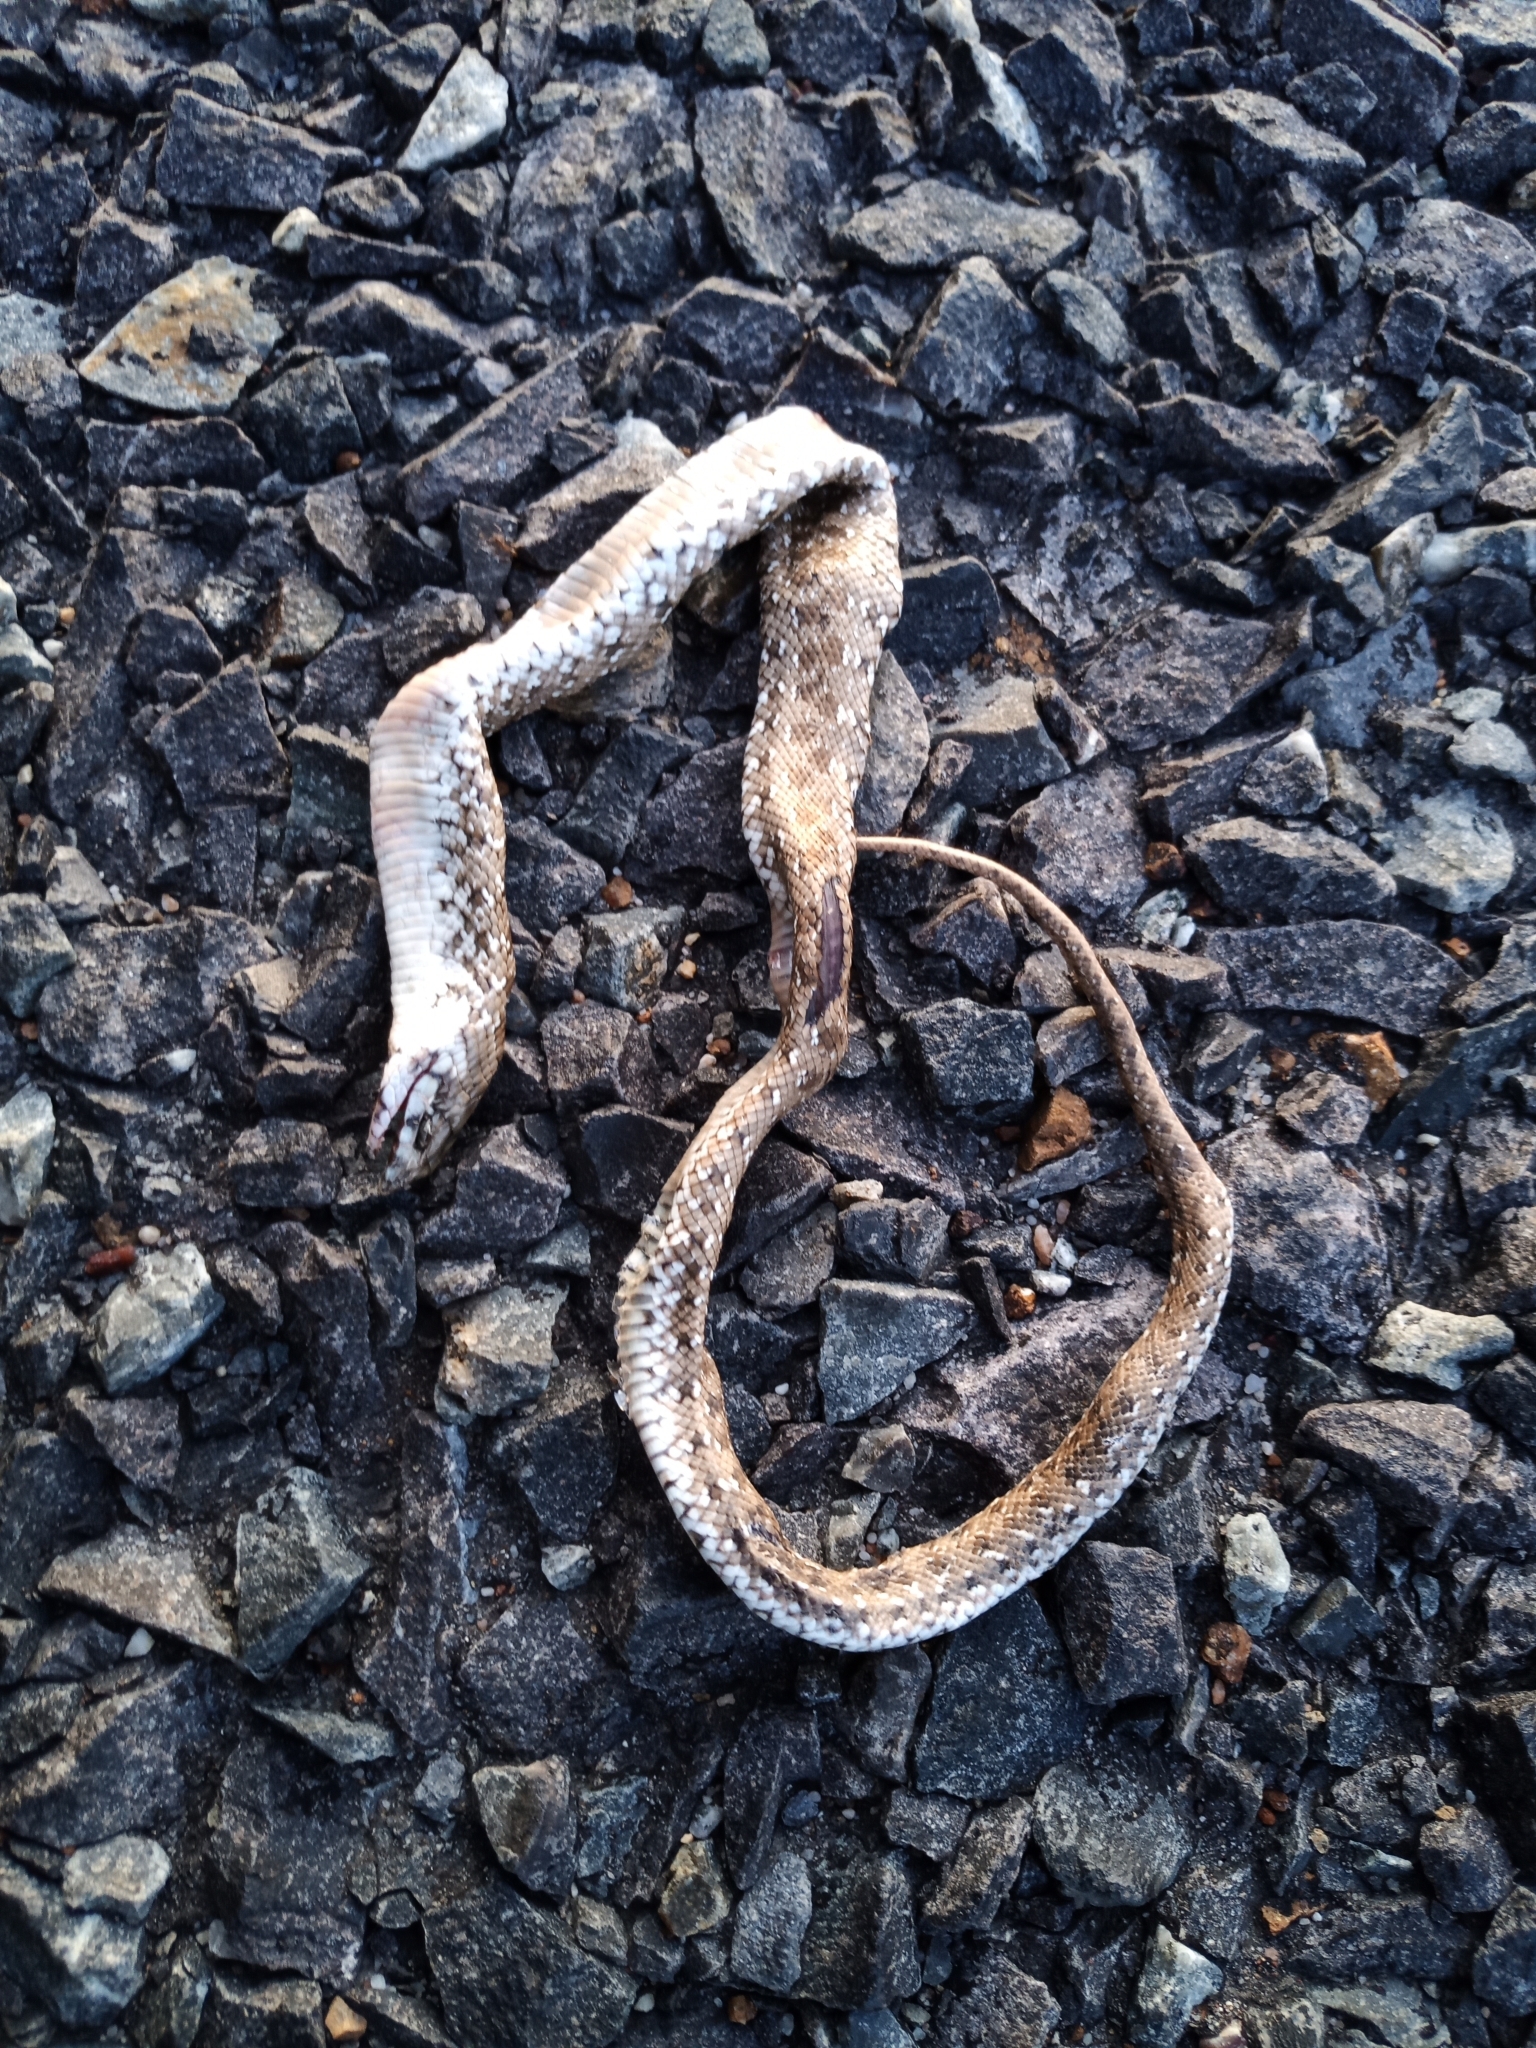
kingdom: Animalia
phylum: Chordata
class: Squamata
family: Pseudaspididae
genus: Pseudaspis
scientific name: Pseudaspis cana
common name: Mole snake
